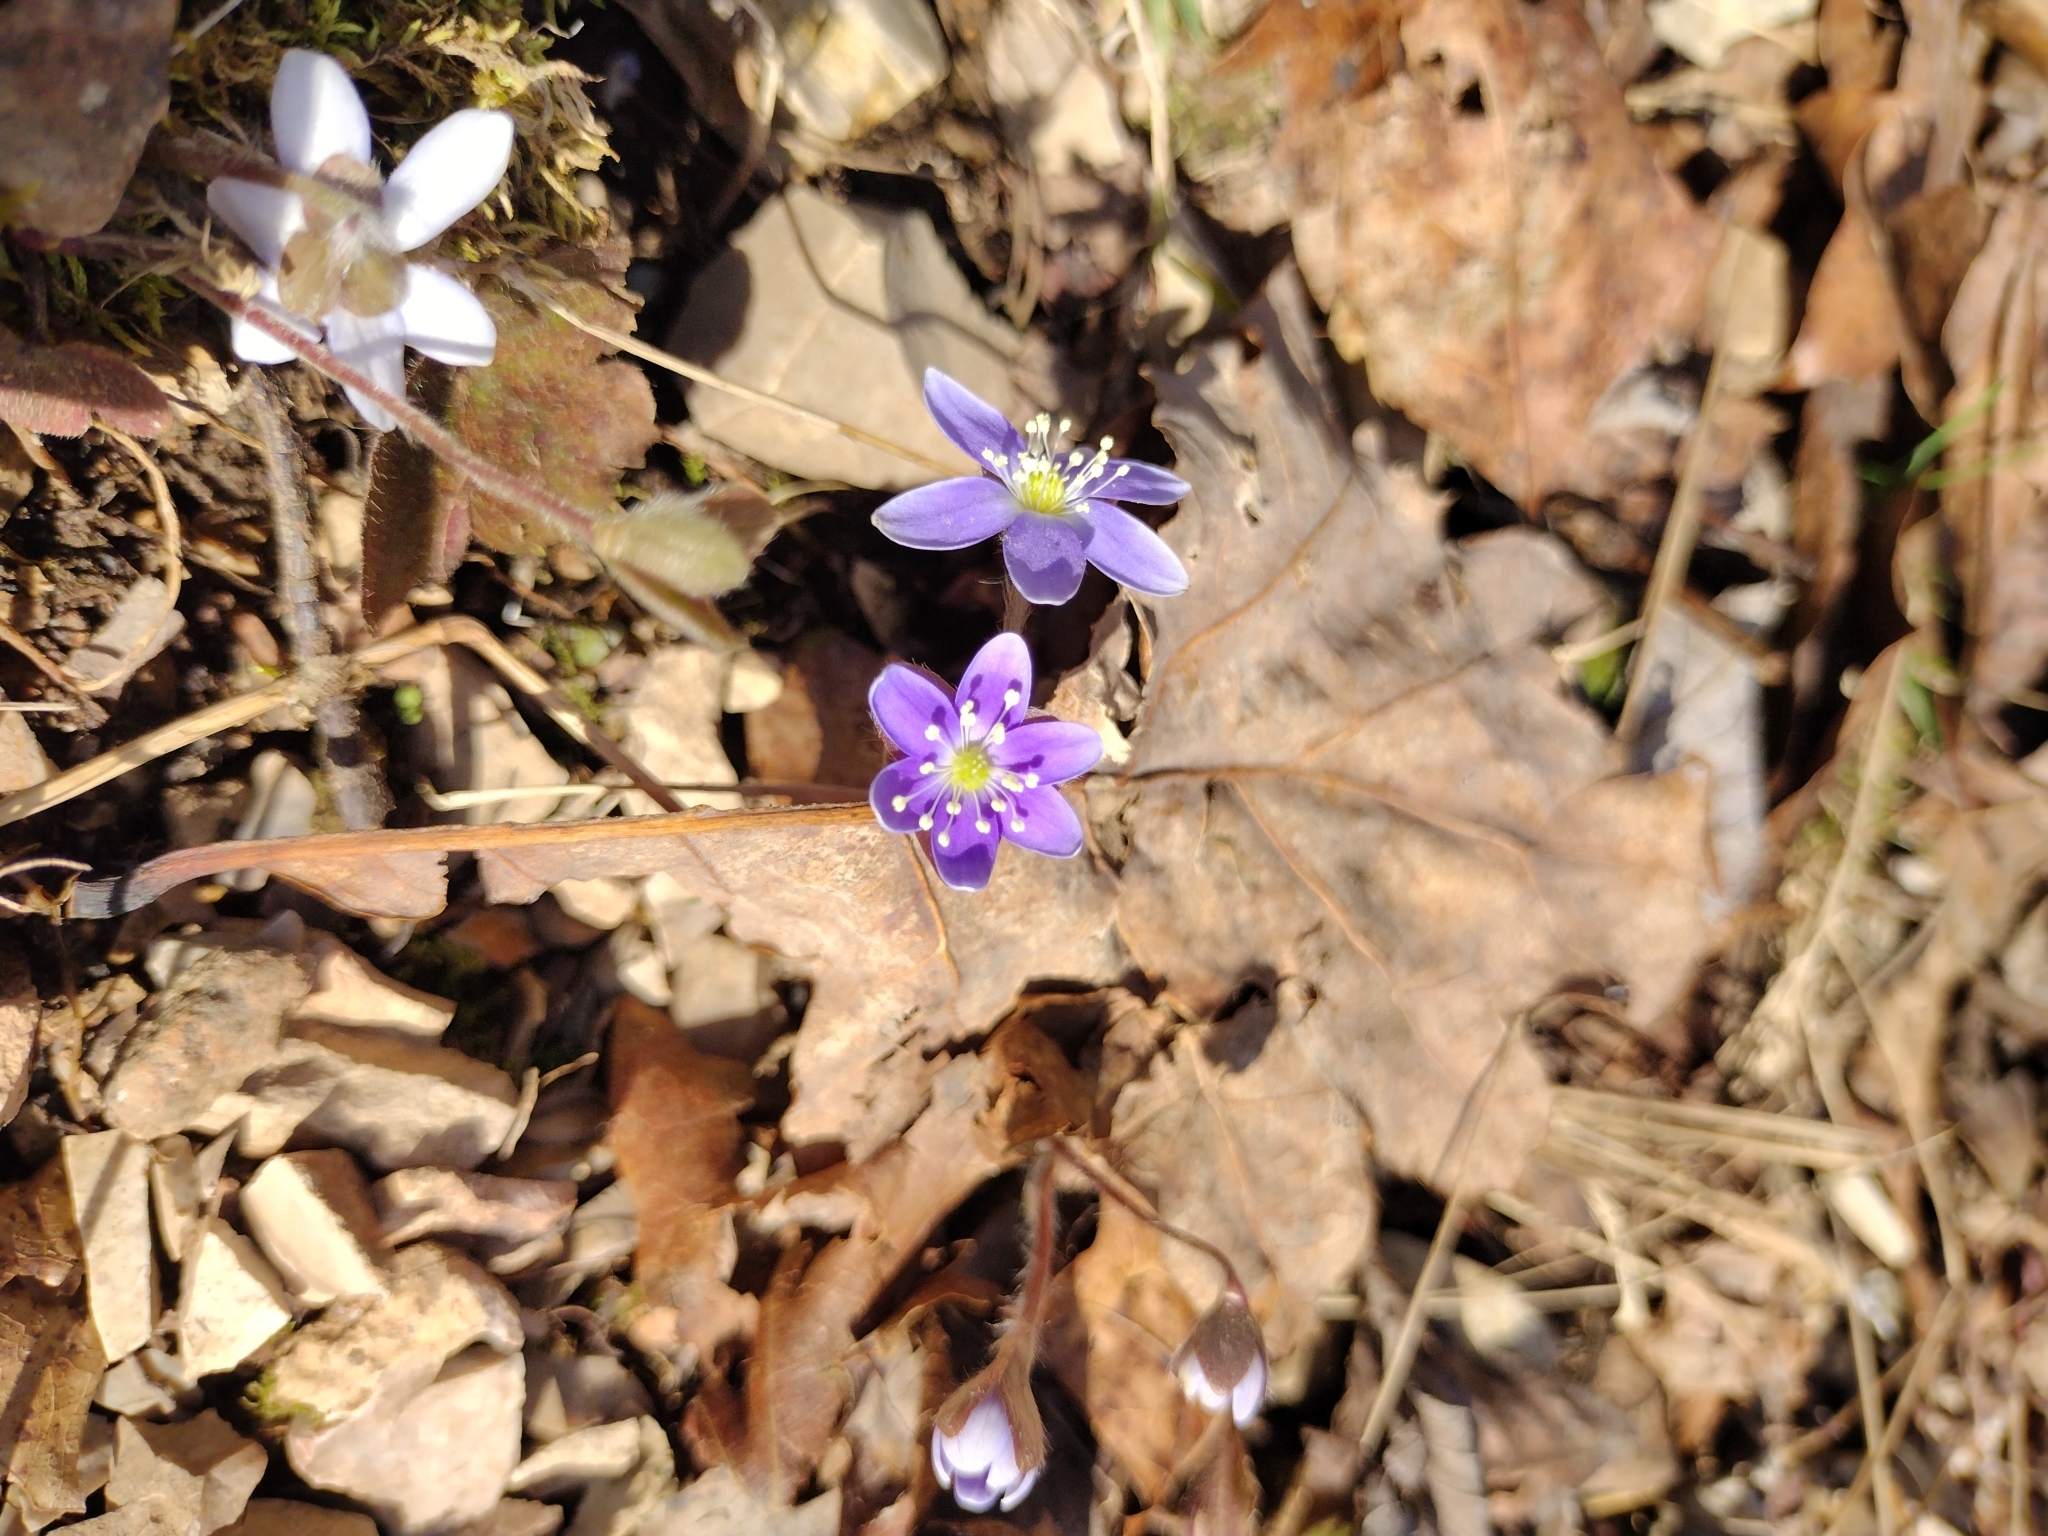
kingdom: Plantae
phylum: Tracheophyta
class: Magnoliopsida
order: Ranunculales
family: Ranunculaceae
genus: Hepatica
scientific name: Hepatica americana
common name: American hepatica
